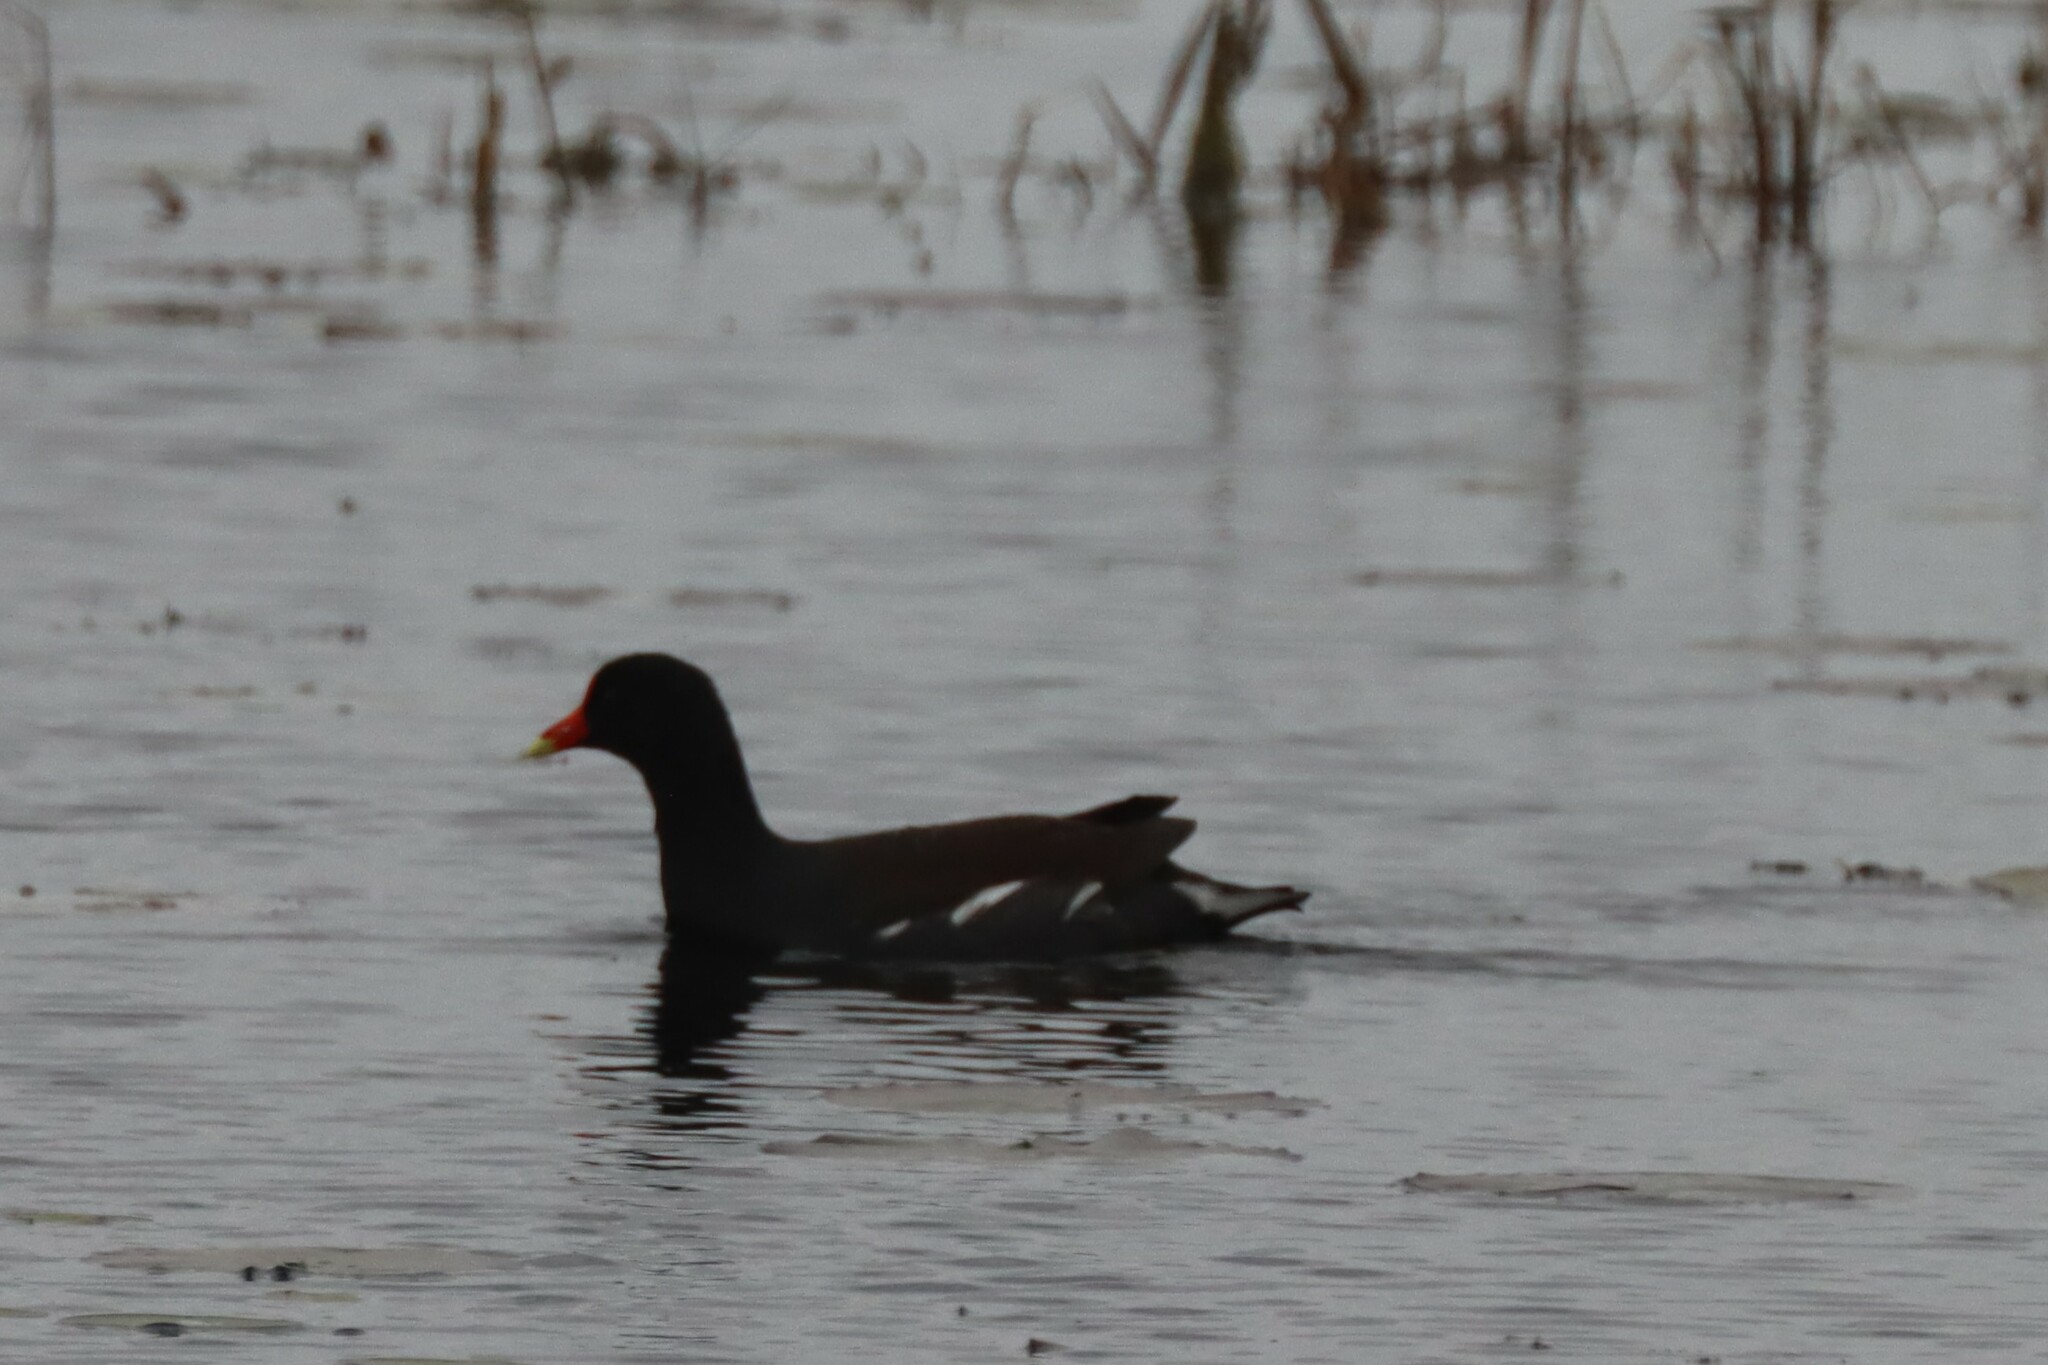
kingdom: Animalia
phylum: Chordata
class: Aves
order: Gruiformes
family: Rallidae
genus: Gallinula
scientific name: Gallinula chloropus
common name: Common moorhen
